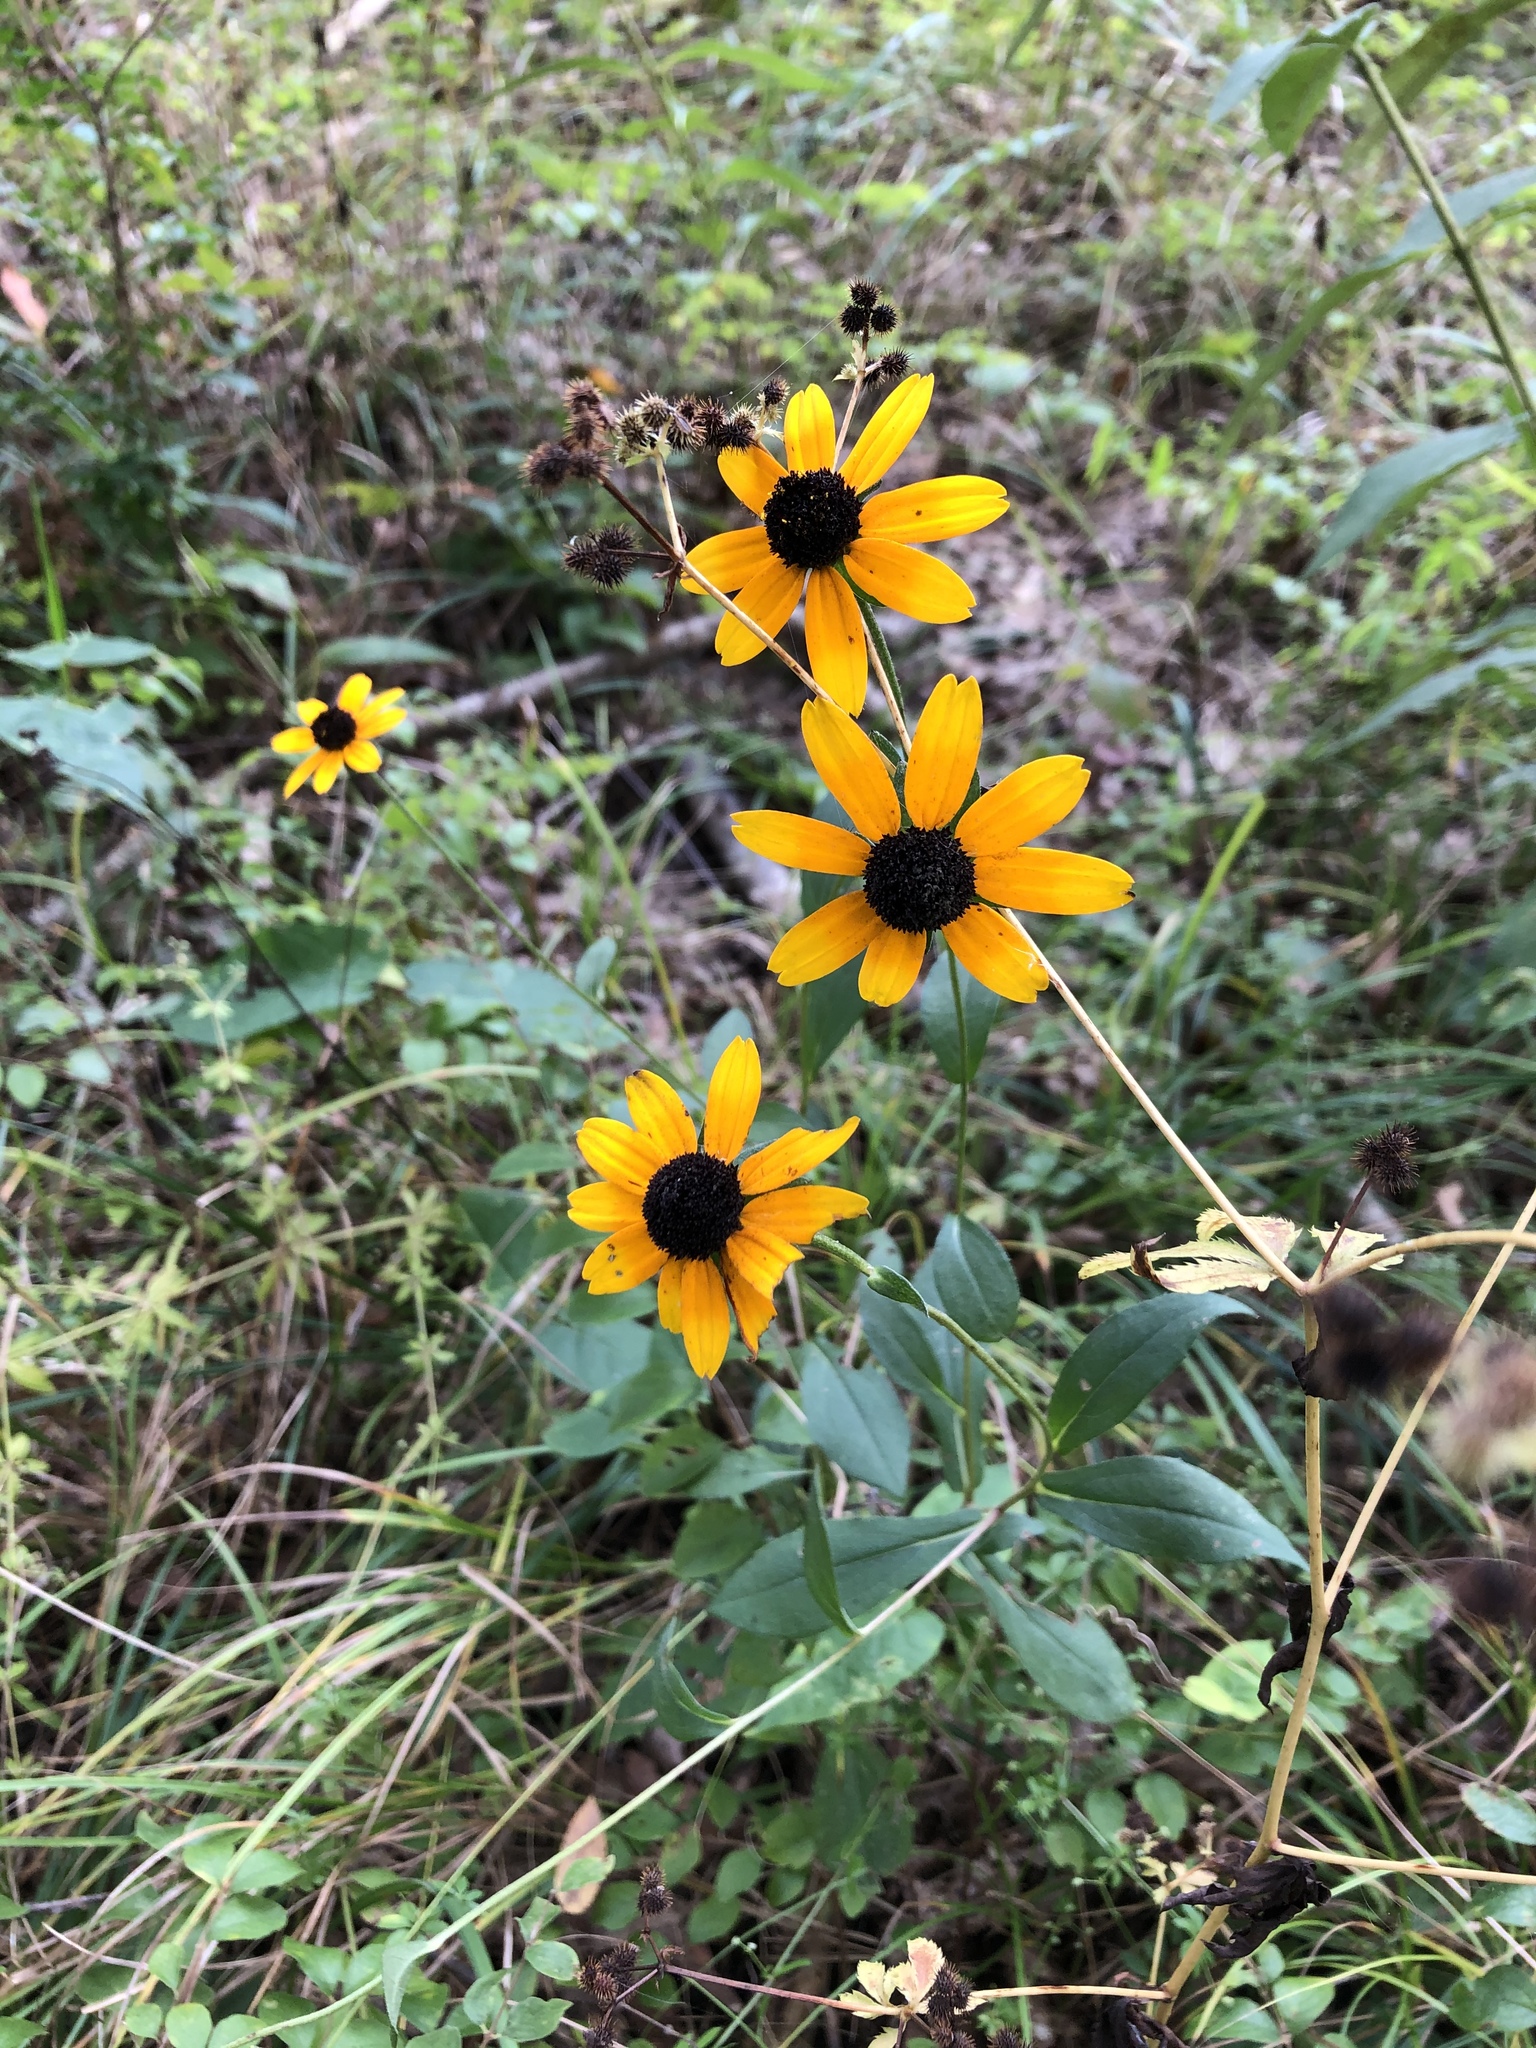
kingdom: Plantae
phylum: Tracheophyta
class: Magnoliopsida
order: Asterales
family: Asteraceae
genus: Rudbeckia
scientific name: Rudbeckia triloba
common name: Thin-leaved coneflower
